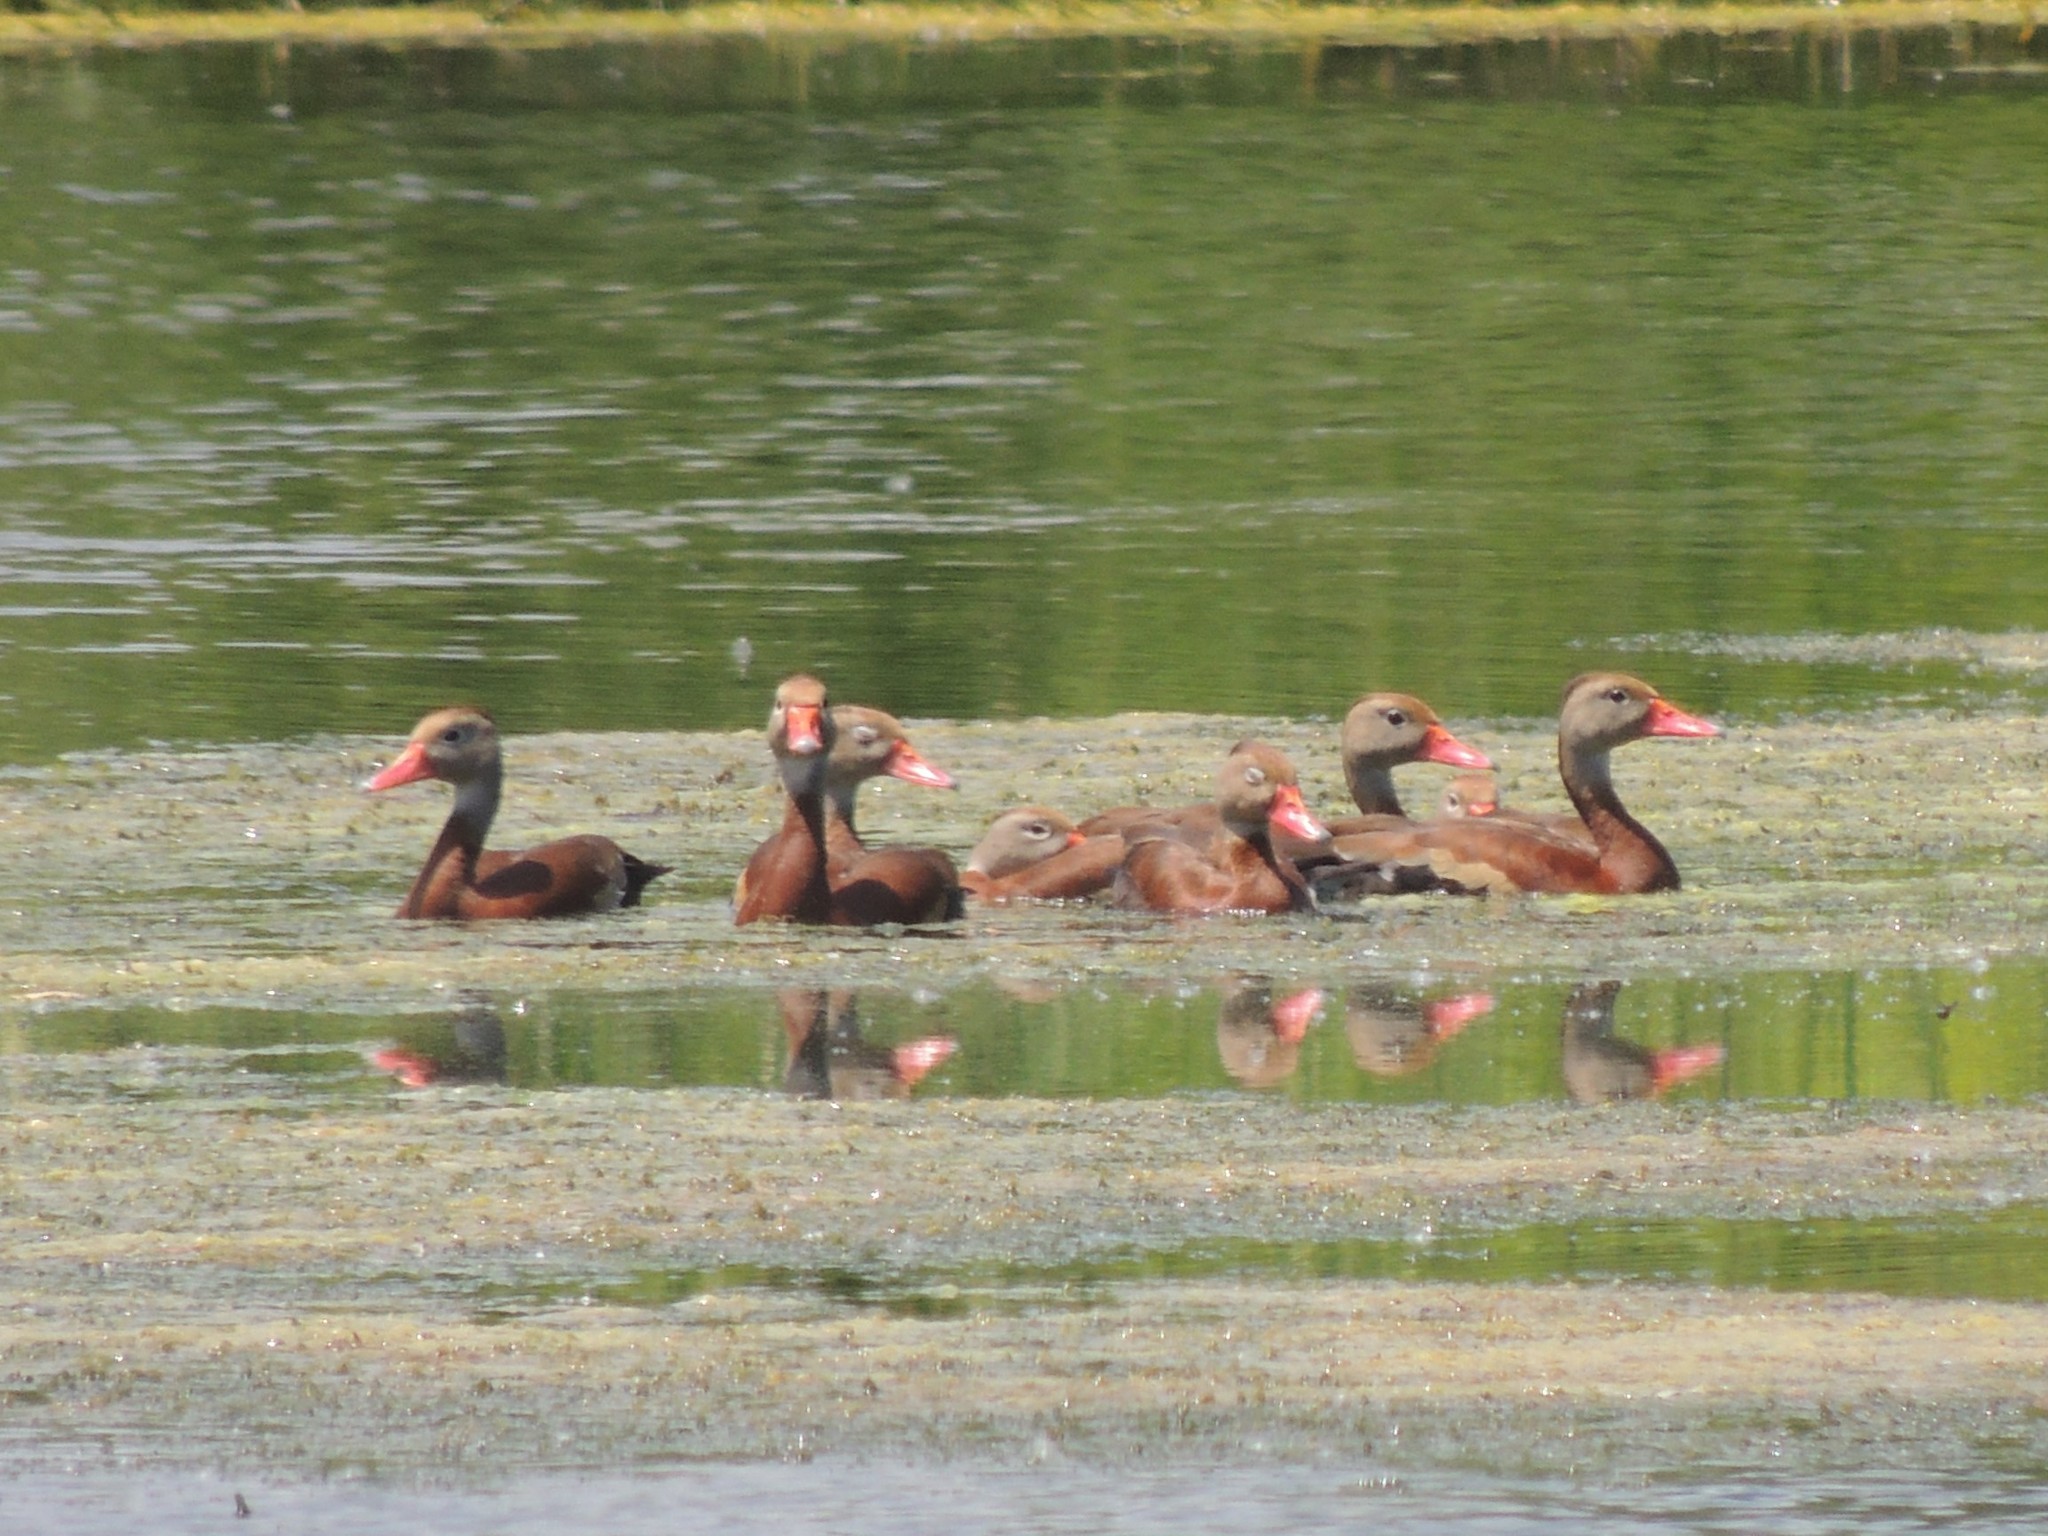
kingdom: Animalia
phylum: Chordata
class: Aves
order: Anseriformes
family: Anatidae
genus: Dendrocygna
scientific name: Dendrocygna autumnalis
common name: Black-bellied whistling duck
